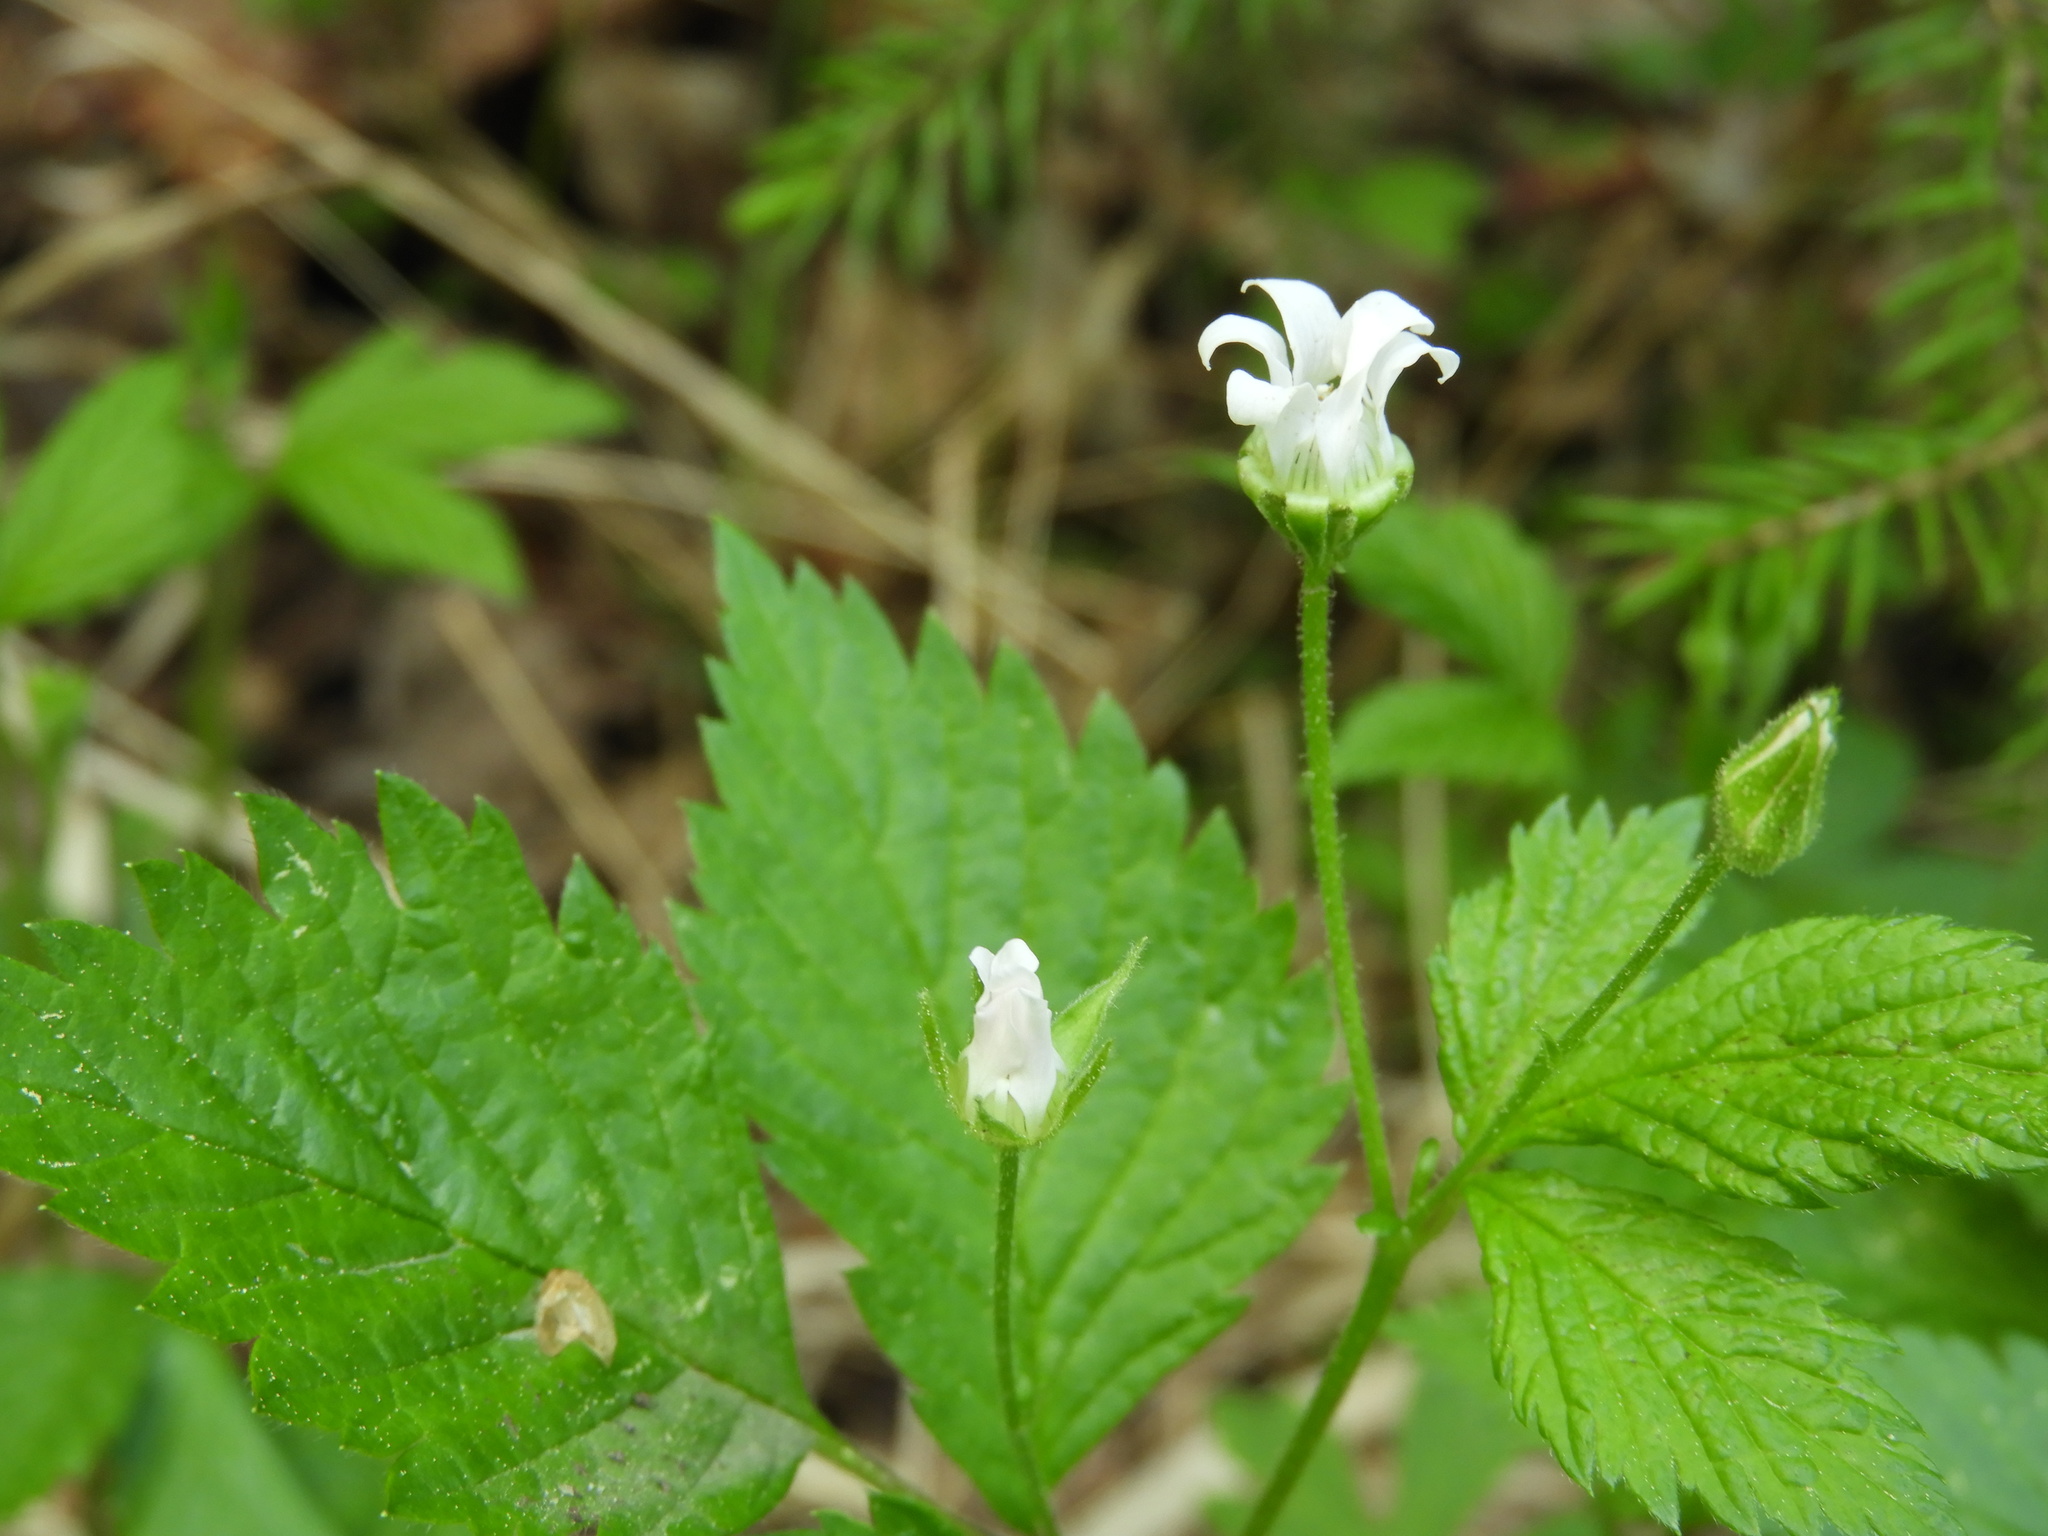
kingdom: Plantae
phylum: Tracheophyta
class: Magnoliopsida
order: Rosales
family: Rosaceae
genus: Rubus
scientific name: Rubus pubescens
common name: Dwarf raspberry
